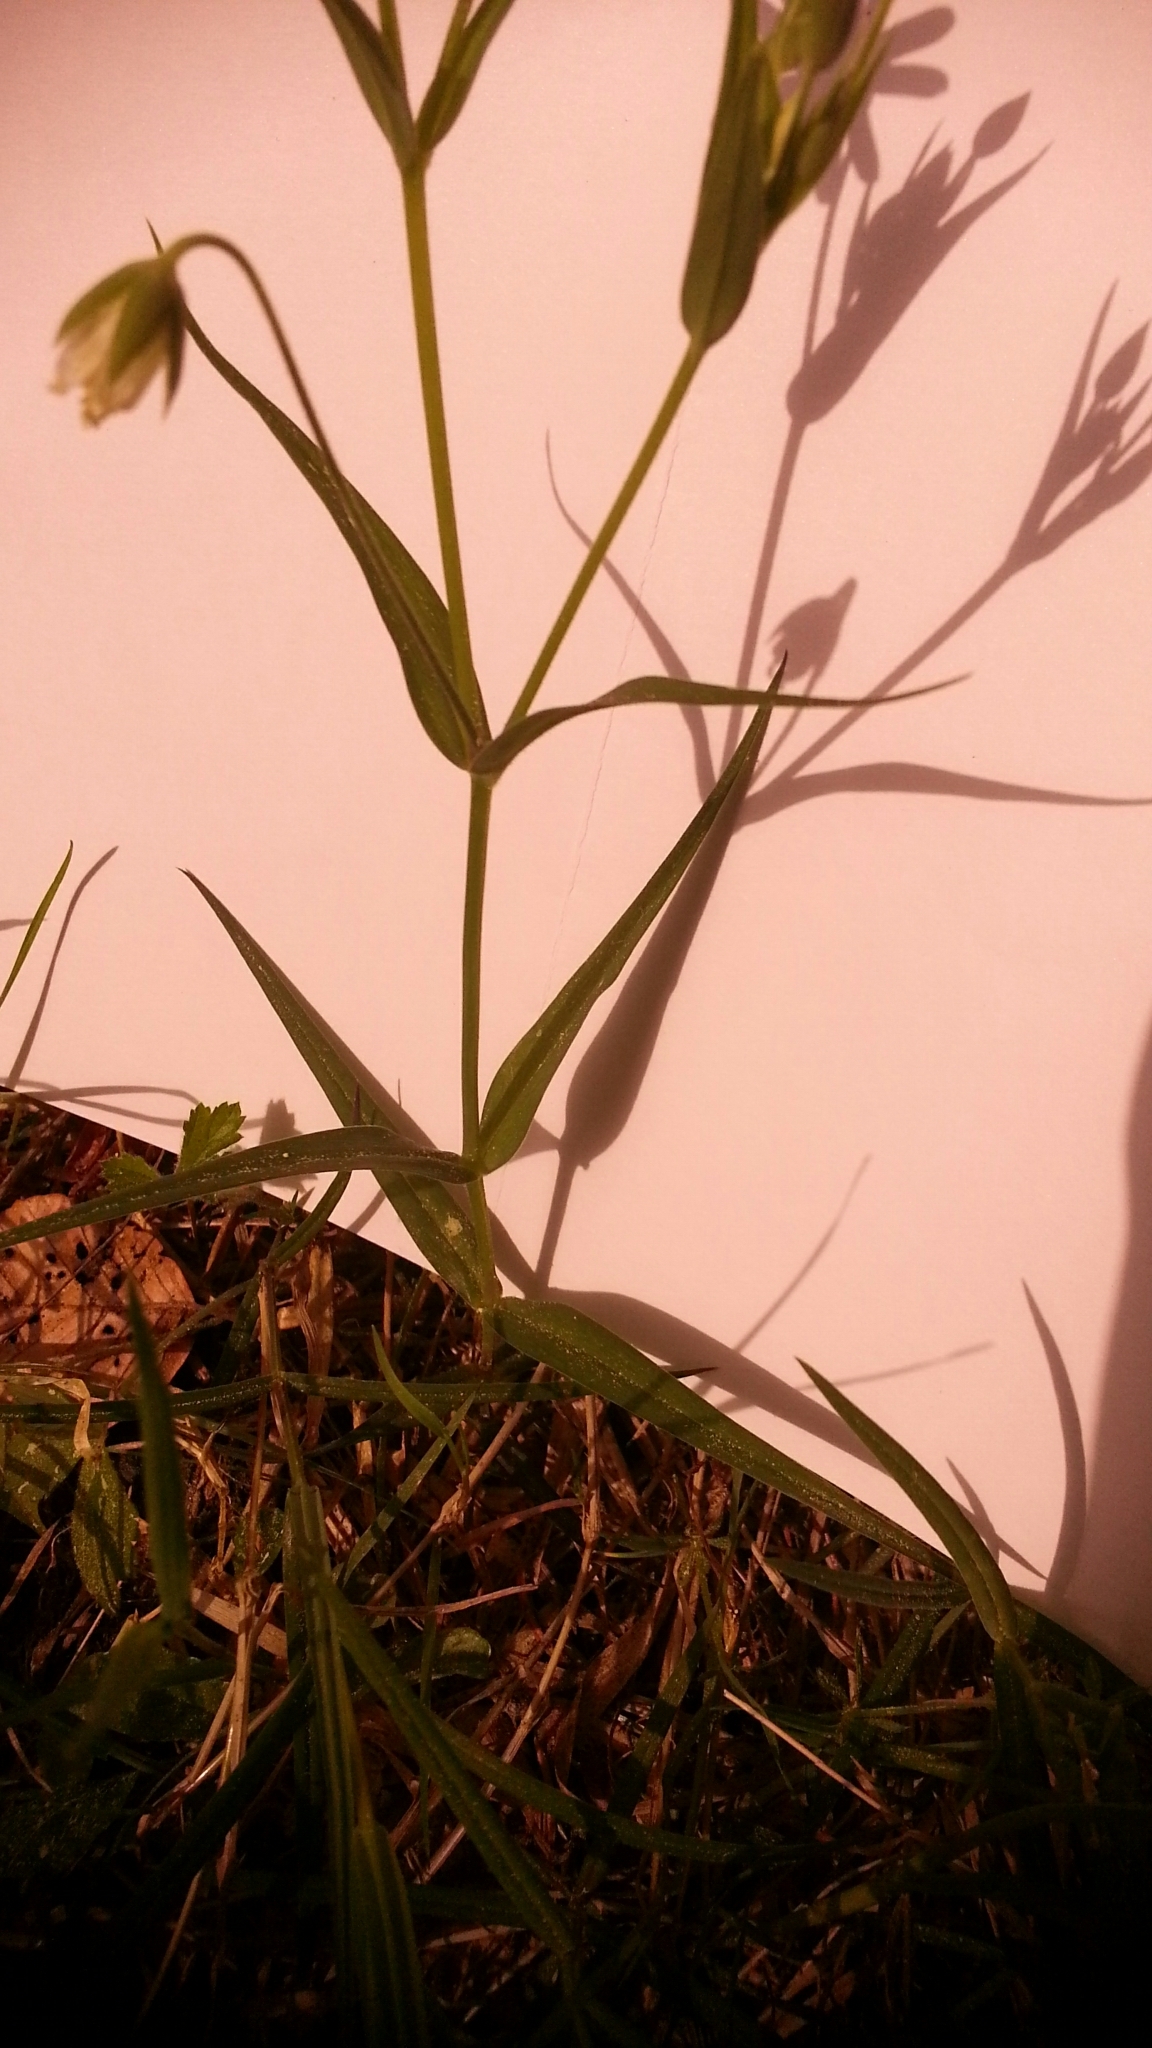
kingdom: Plantae
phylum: Tracheophyta
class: Magnoliopsida
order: Caryophyllales
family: Caryophyllaceae
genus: Rabelera
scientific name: Rabelera holostea
